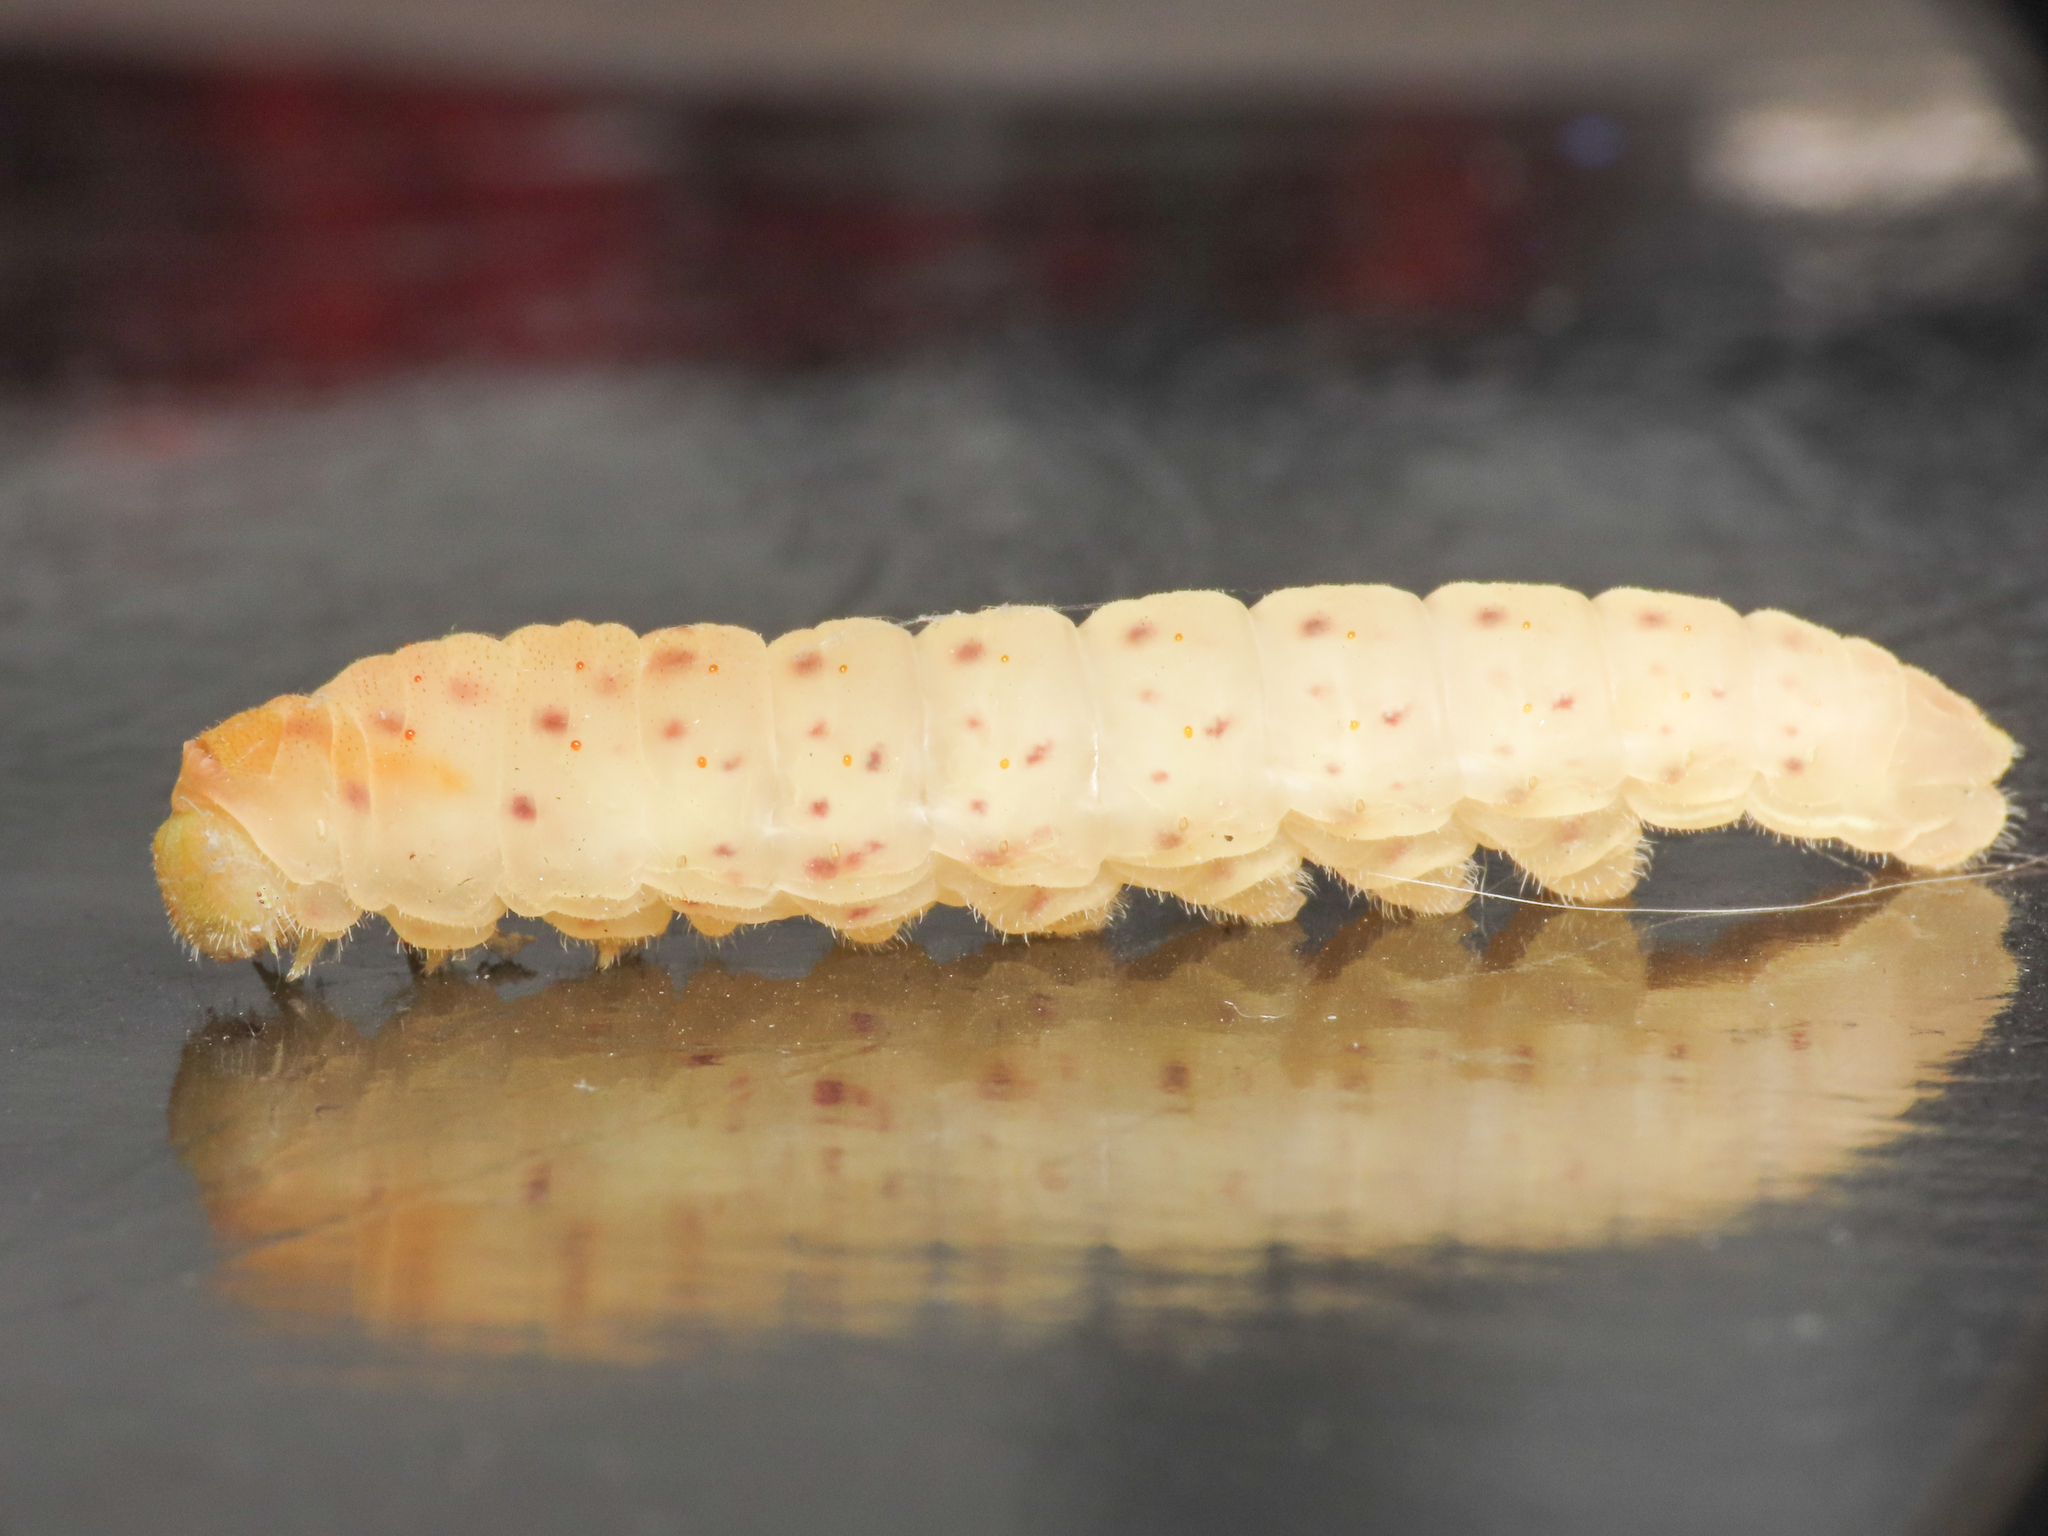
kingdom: Animalia
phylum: Arthropoda
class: Insecta
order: Lepidoptera
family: Papilionidae
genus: Iphiclides
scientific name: Iphiclides podalirius
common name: Scarce swallowtail
